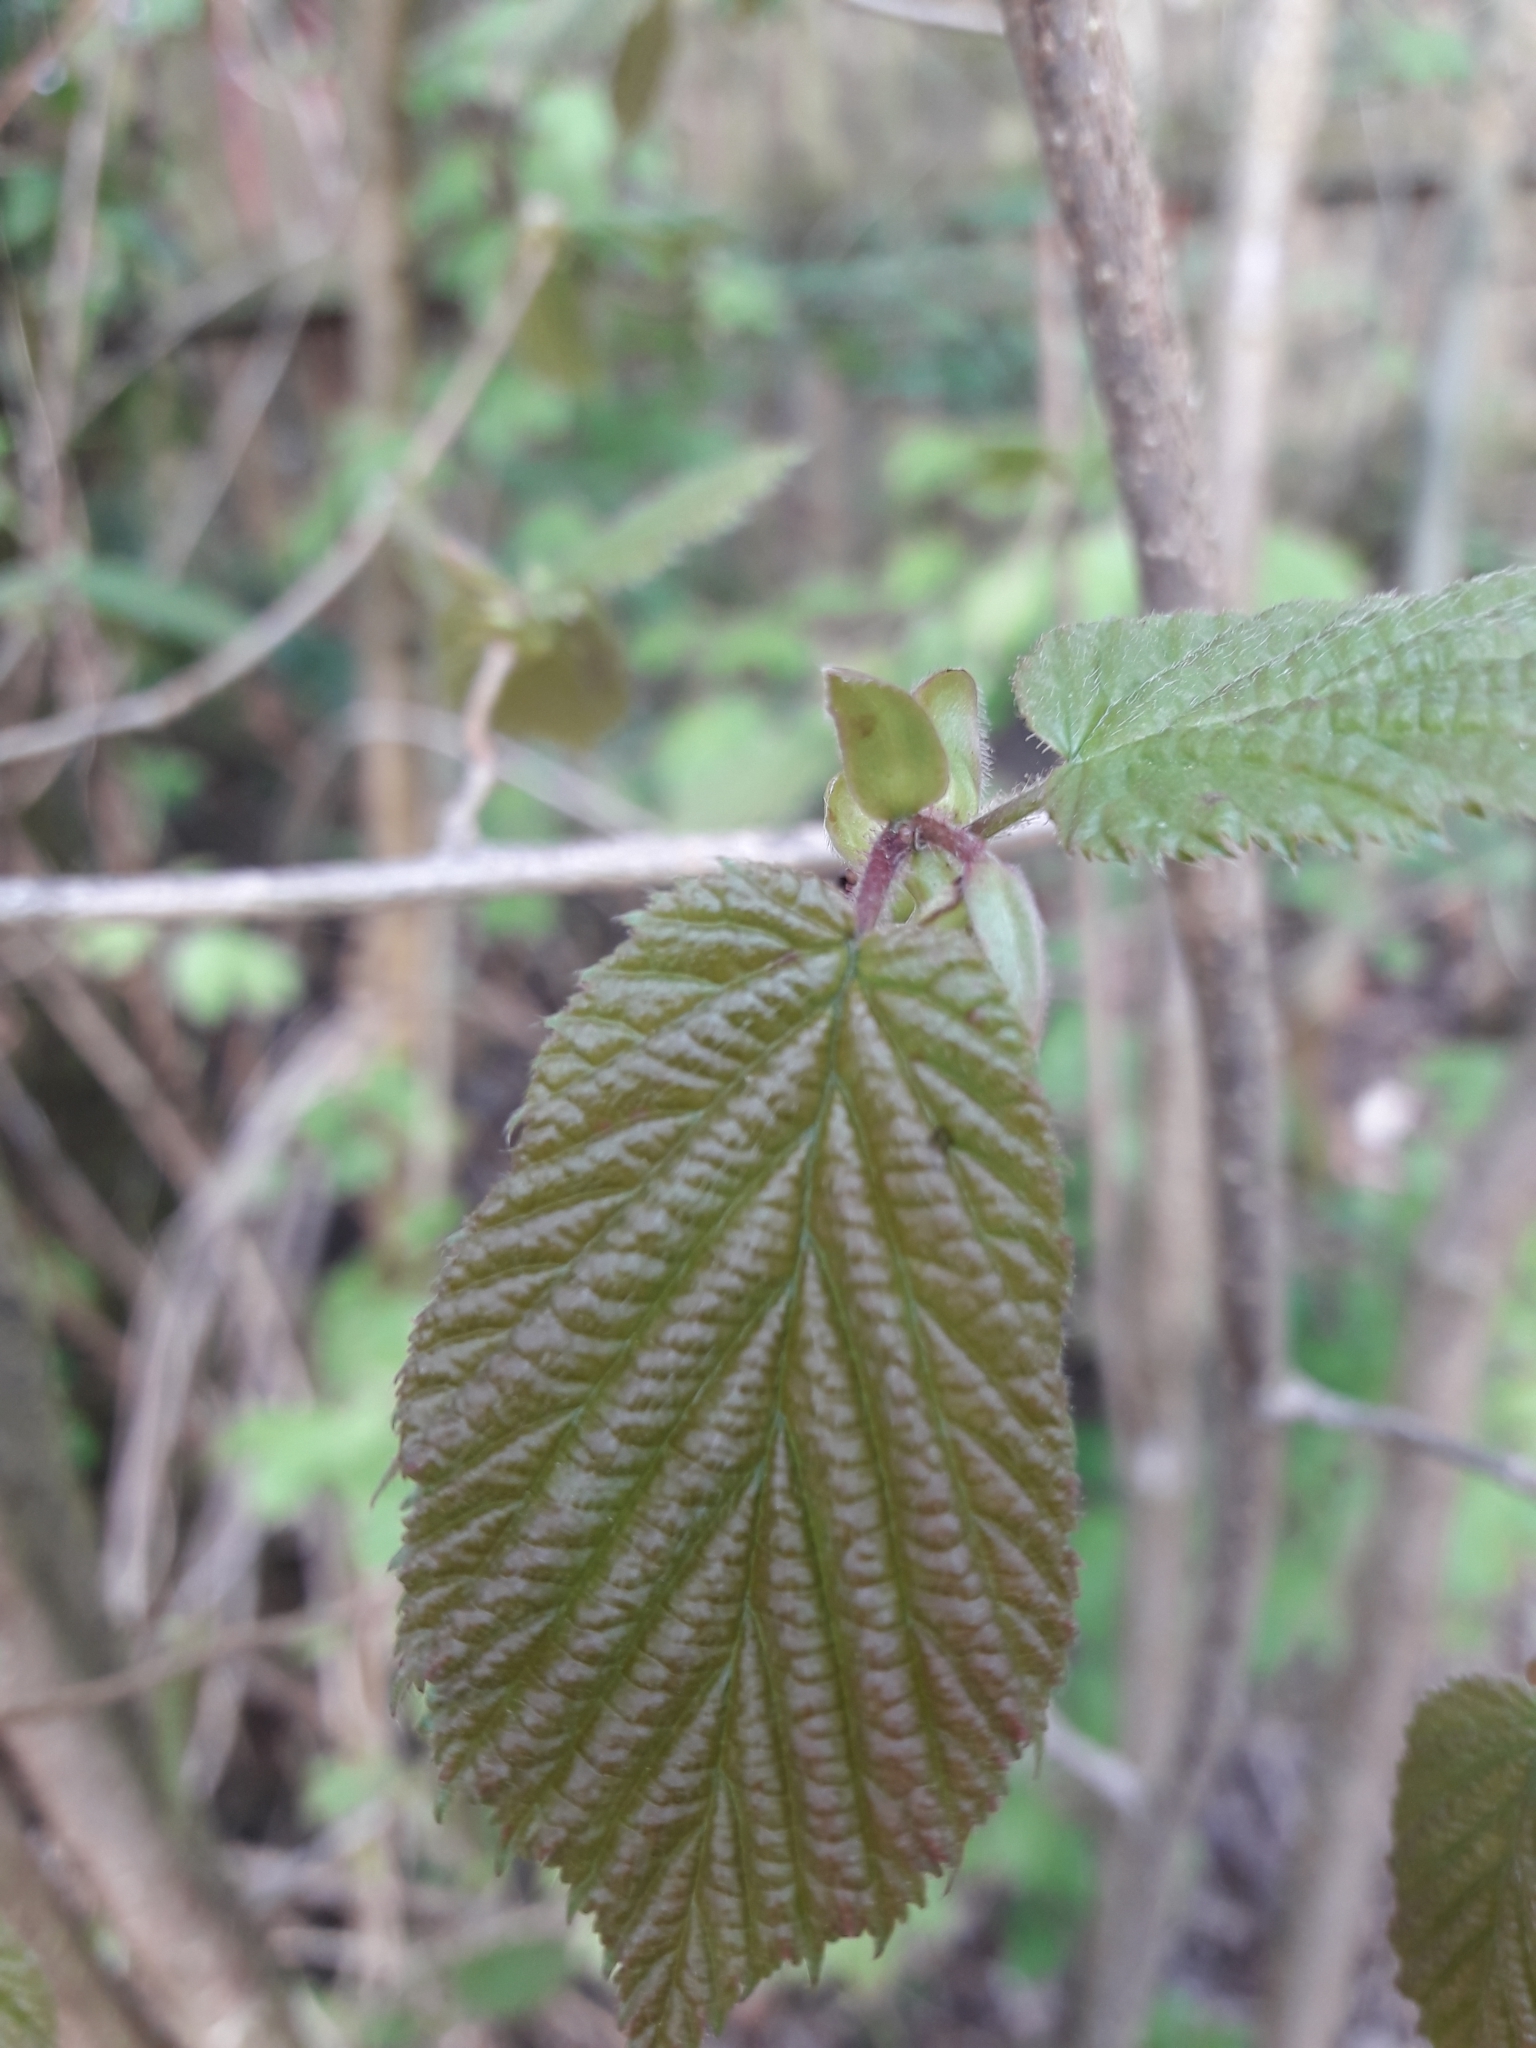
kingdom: Plantae
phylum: Tracheophyta
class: Magnoliopsida
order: Fagales
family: Betulaceae
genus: Corylus
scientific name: Corylus avellana
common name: European hazel
